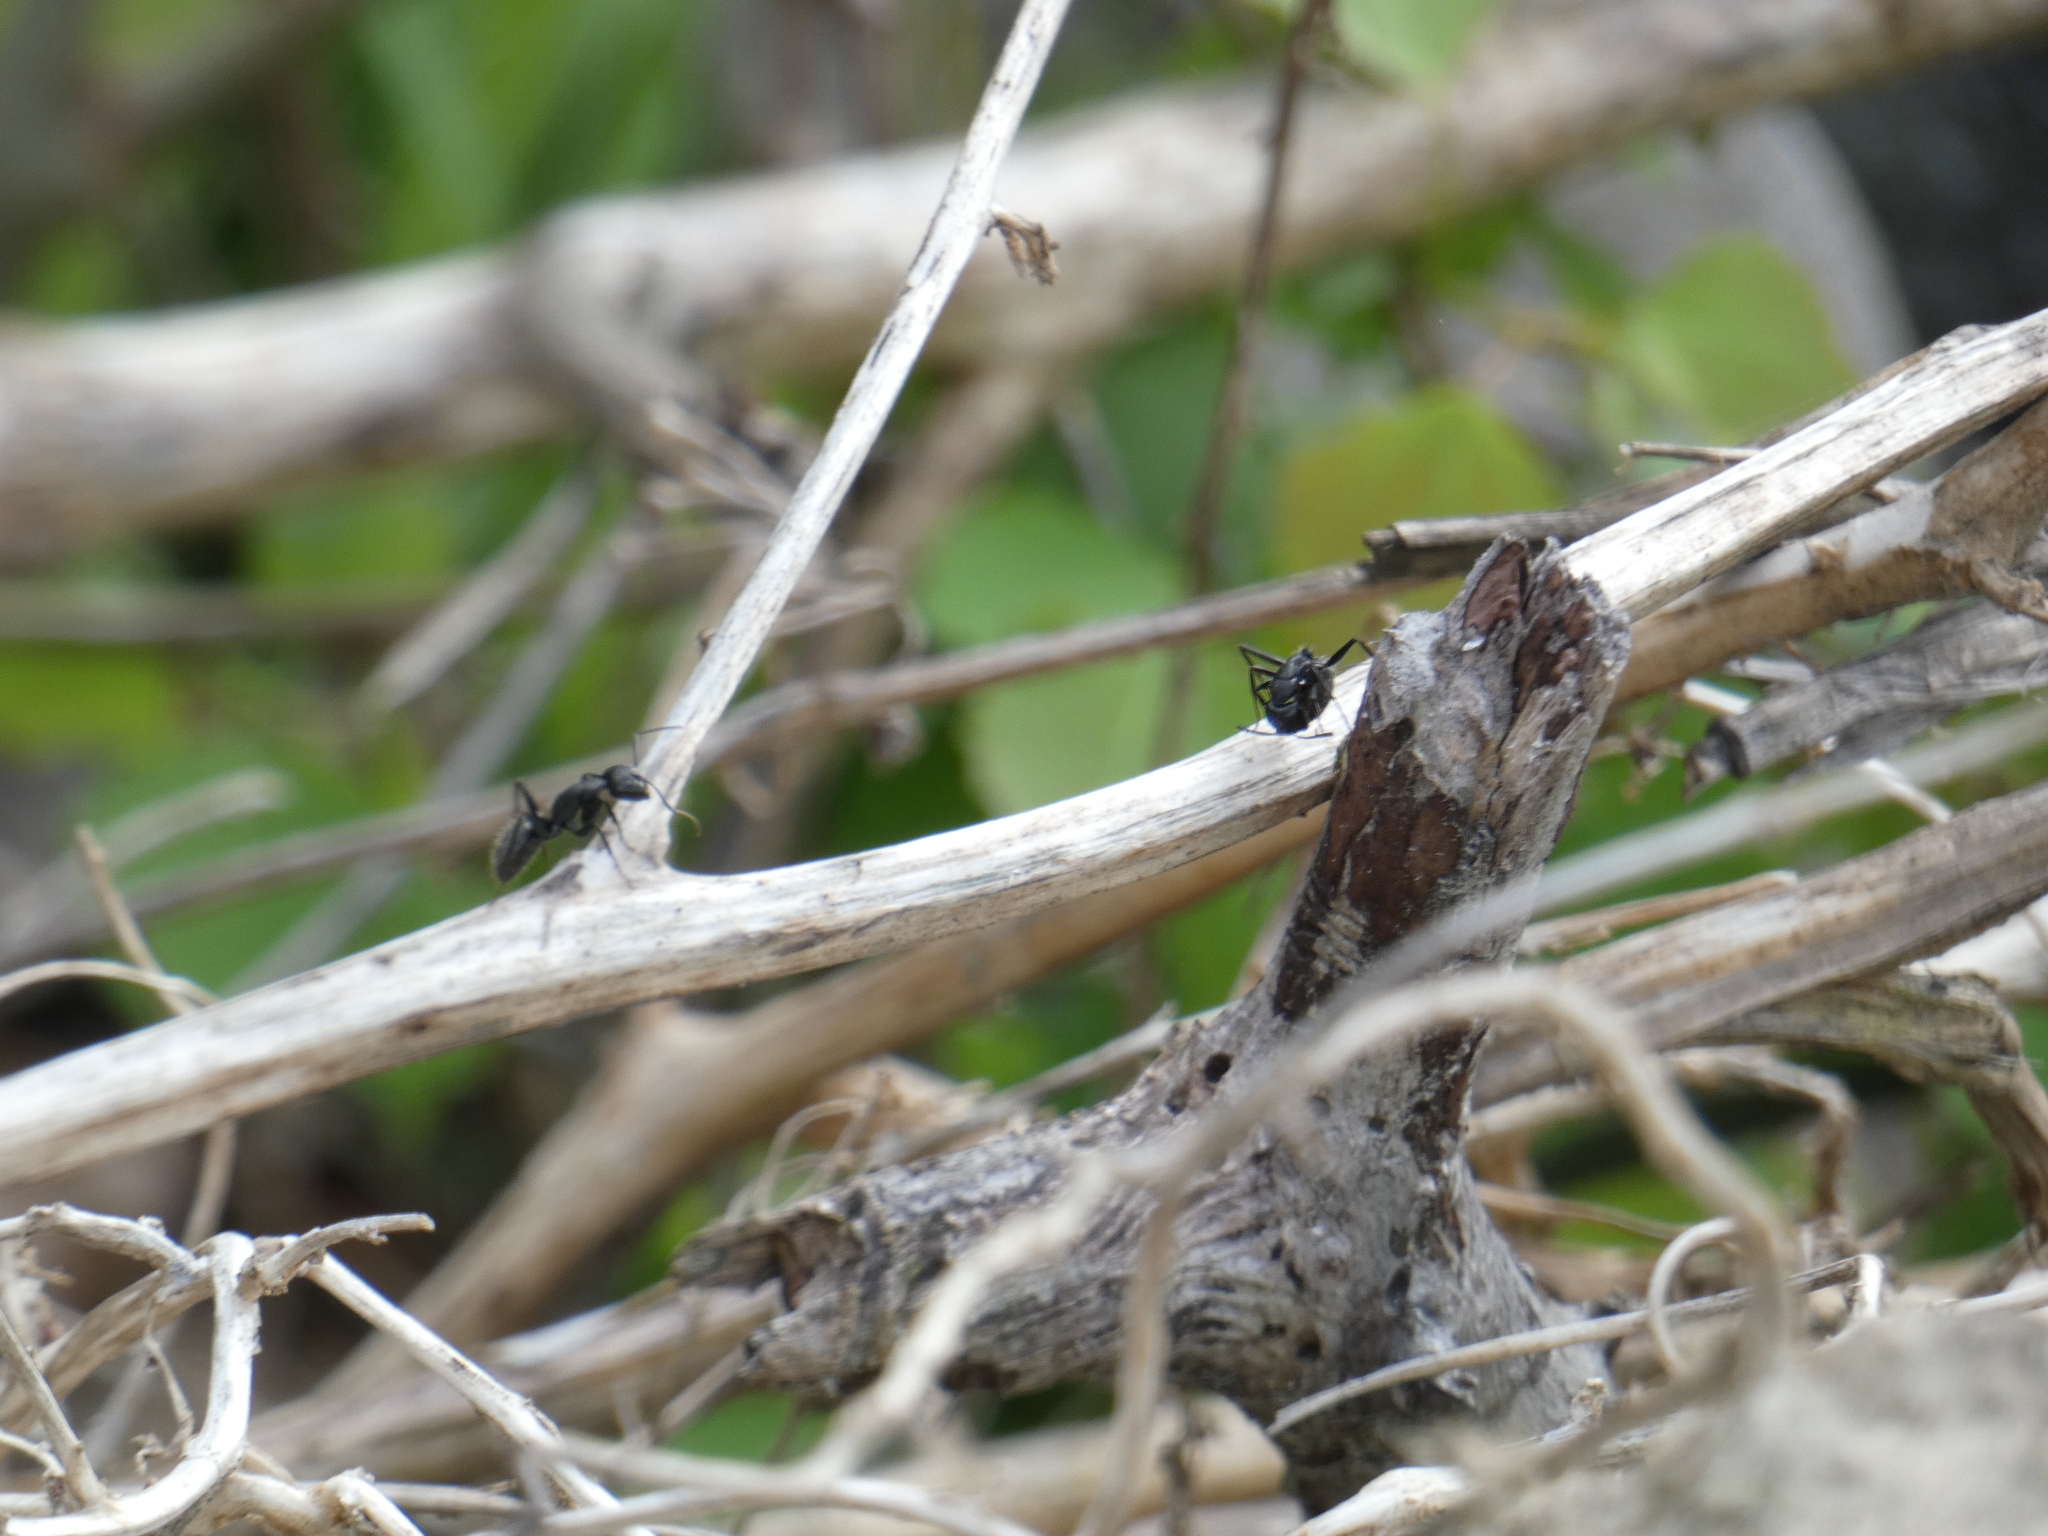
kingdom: Animalia
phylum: Arthropoda
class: Insecta
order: Hymenoptera
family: Formicidae
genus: Camponotus
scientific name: Camponotus vagus
